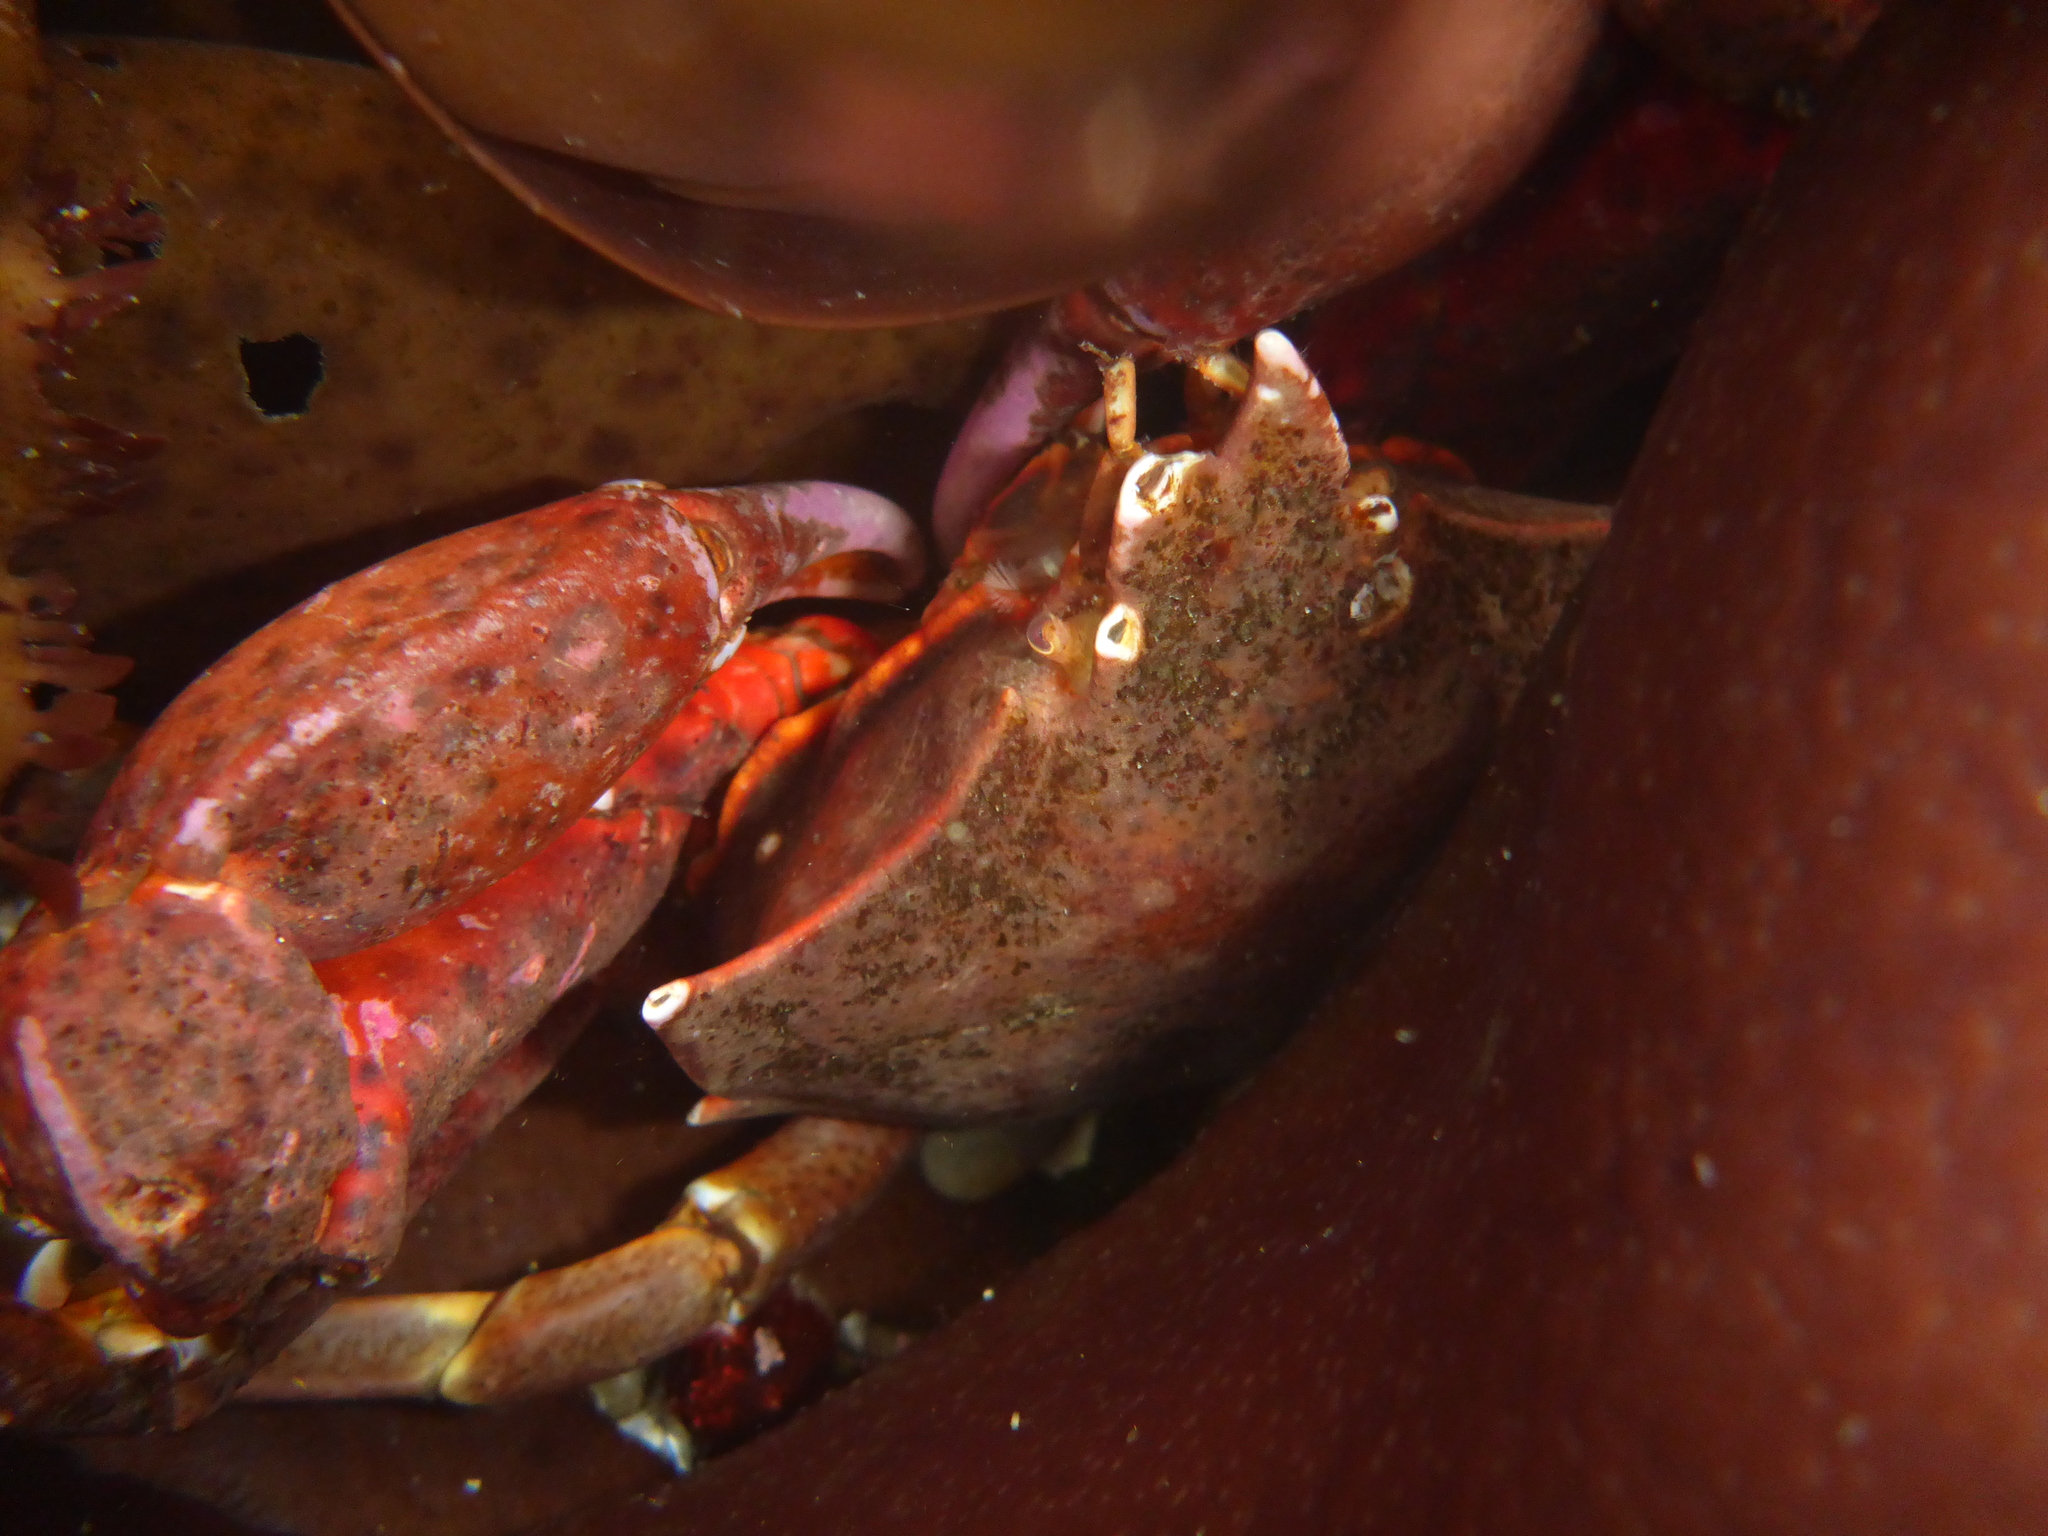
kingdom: Animalia
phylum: Arthropoda
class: Malacostraca
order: Decapoda
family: Epialtidae
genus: Pugettia
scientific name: Pugettia producta
